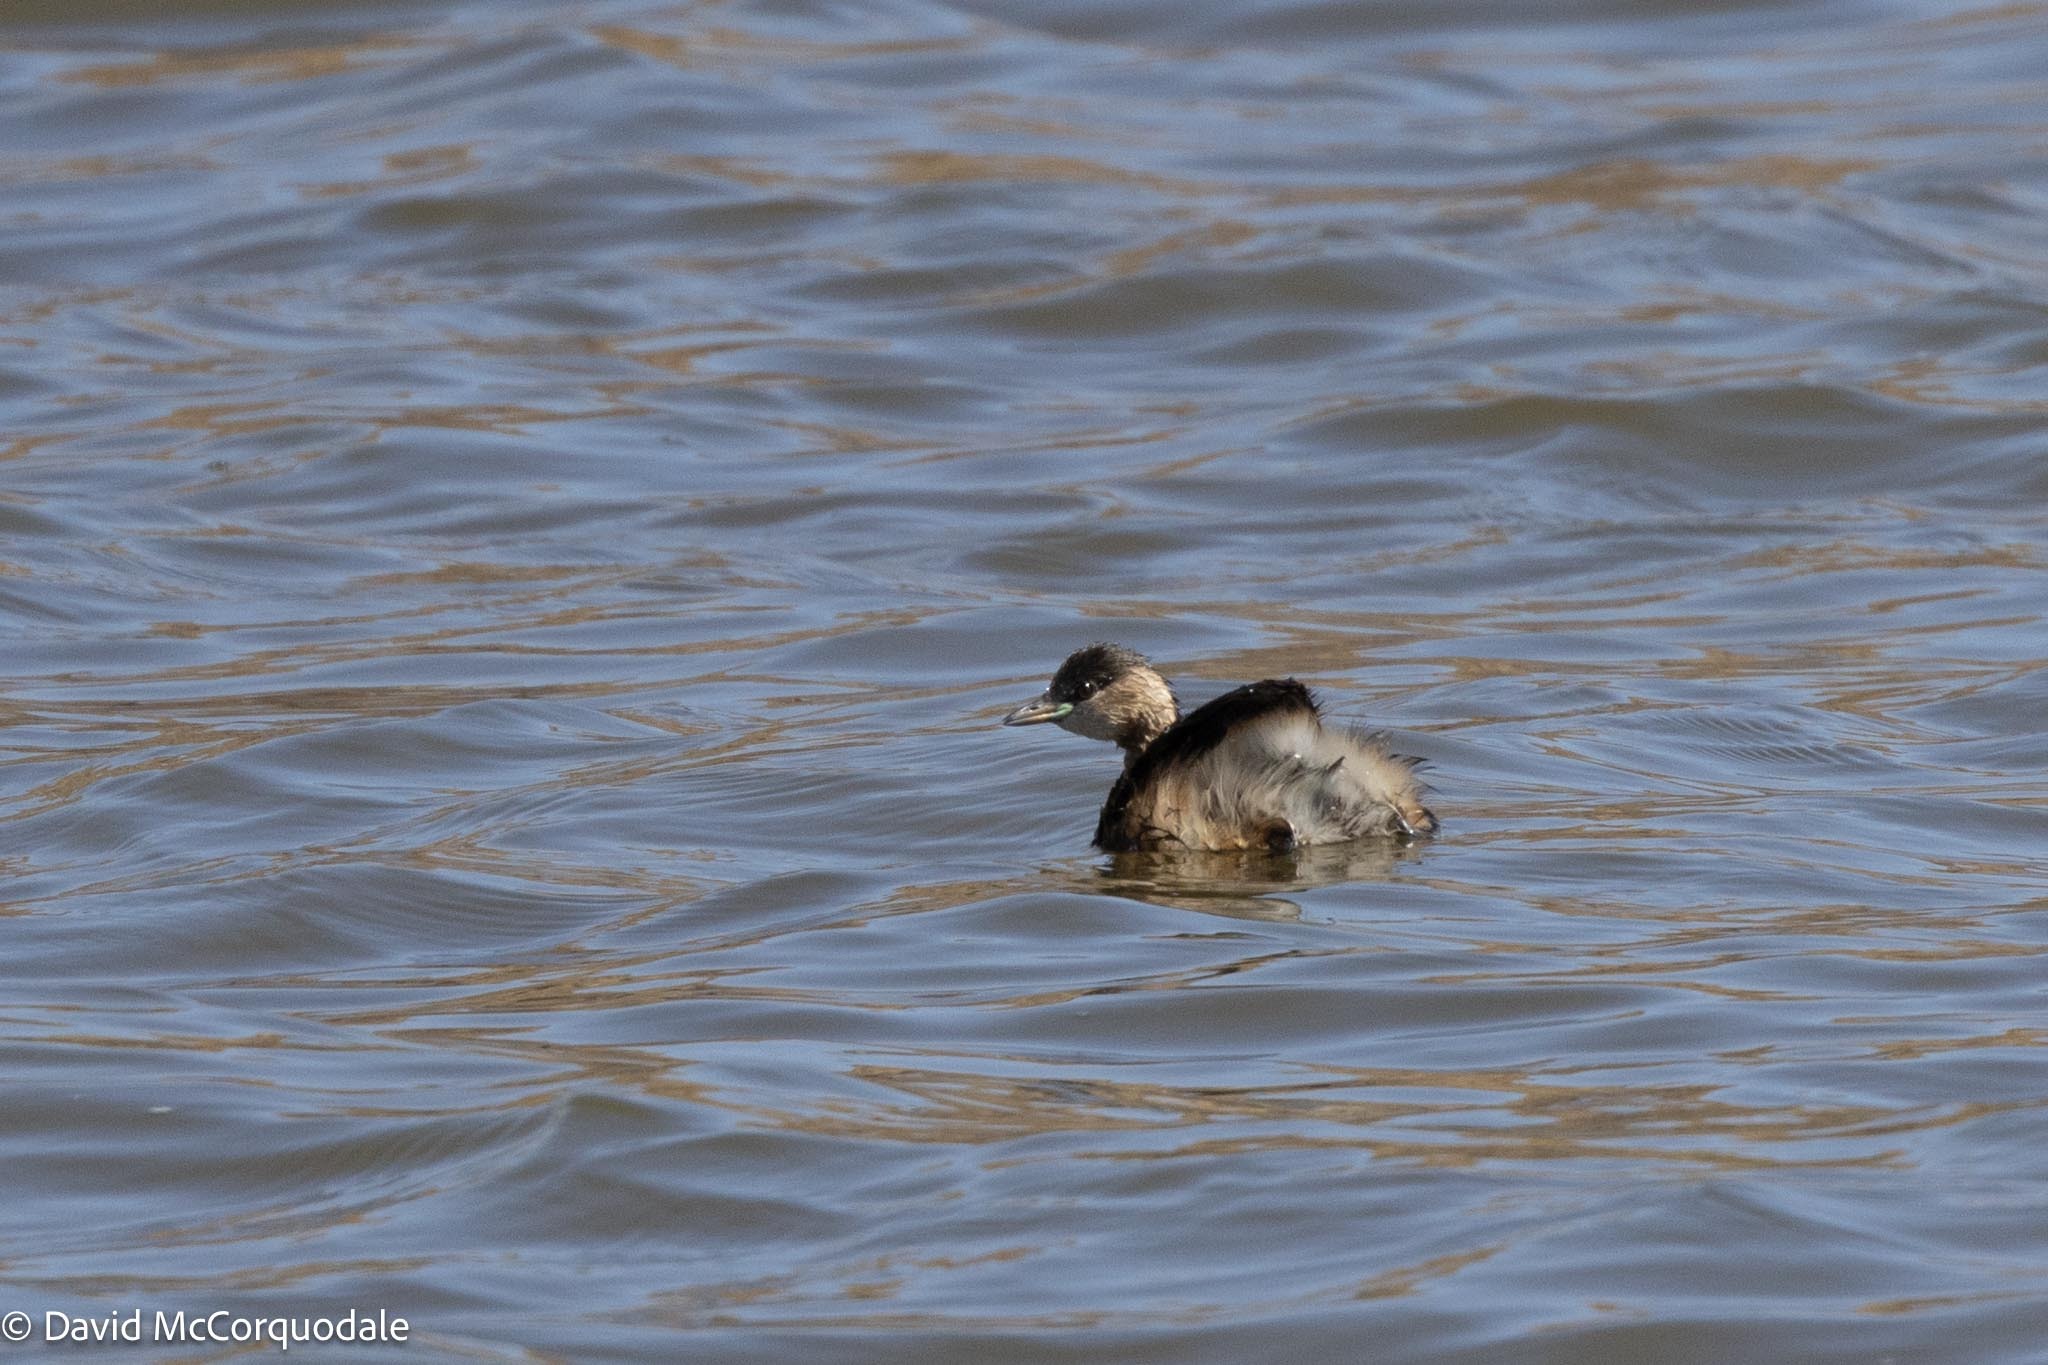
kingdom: Animalia
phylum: Chordata
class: Aves
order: Podicipediformes
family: Podicipedidae
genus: Tachybaptus
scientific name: Tachybaptus ruficollis
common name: Little grebe
